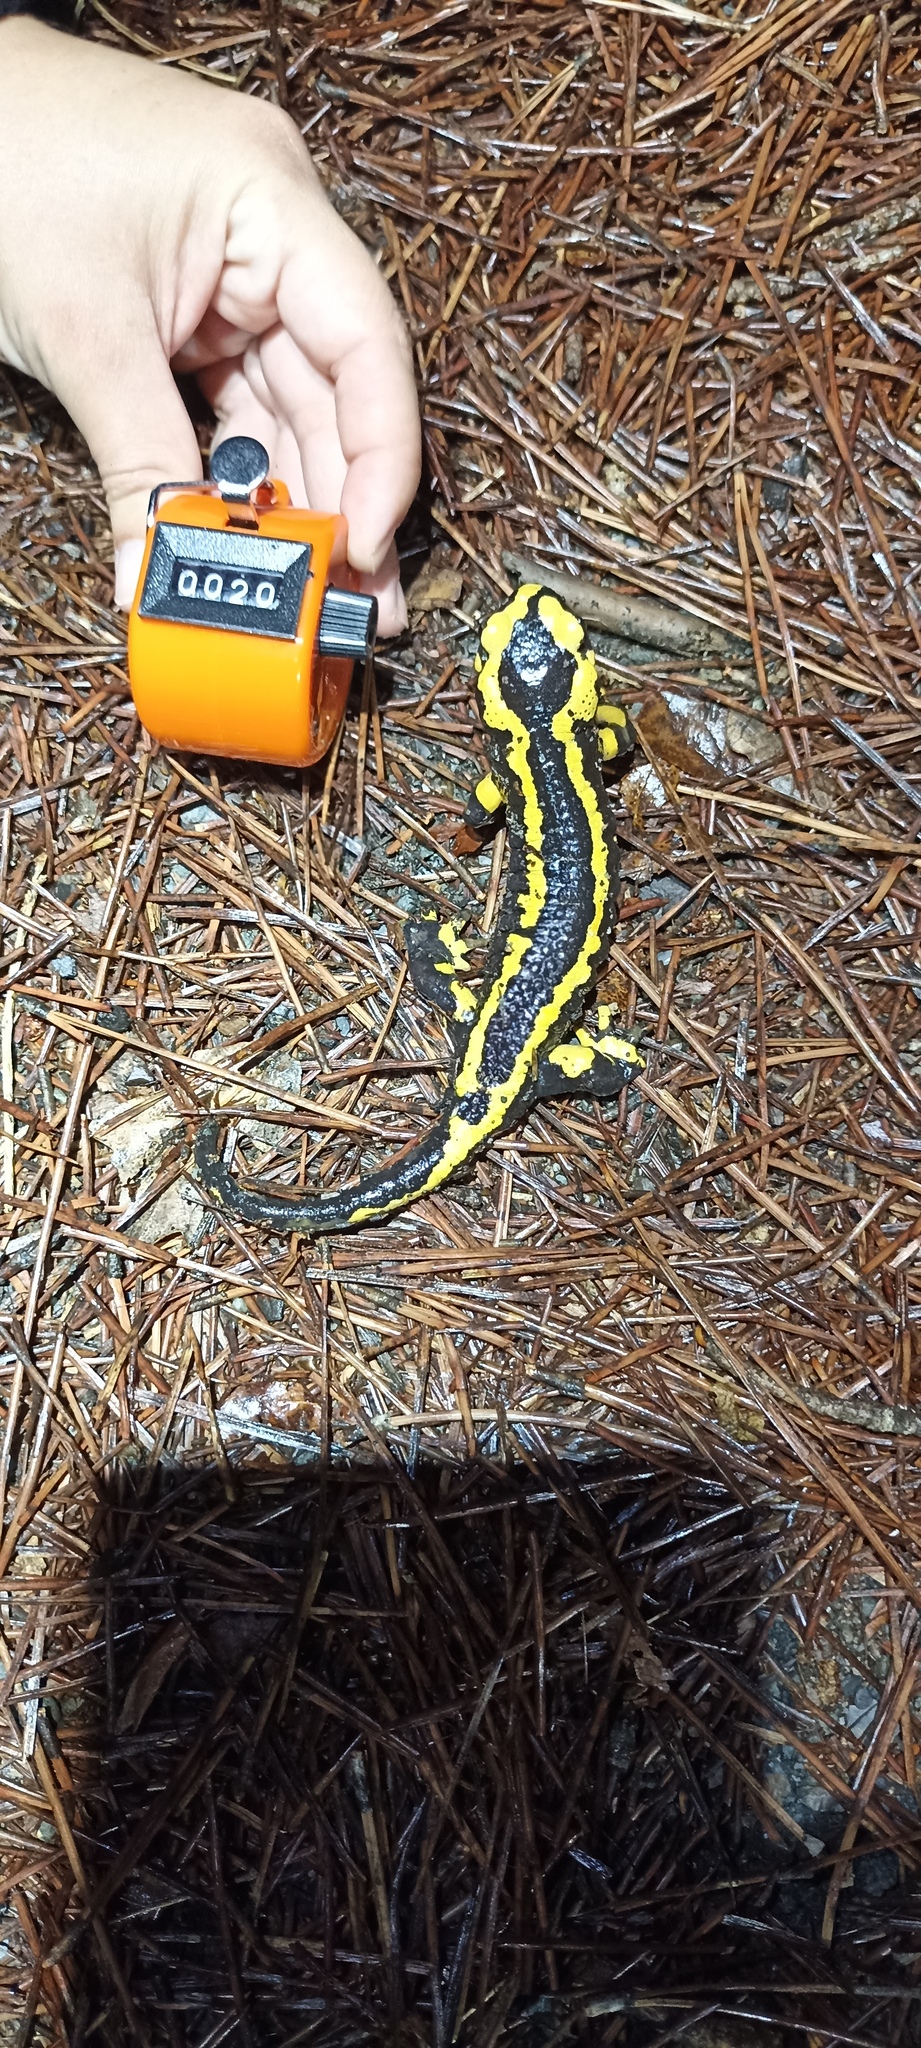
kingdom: Animalia
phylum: Chordata
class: Amphibia
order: Caudata
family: Salamandridae
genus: Salamandra
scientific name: Salamandra salamandra
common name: Fire salamander
